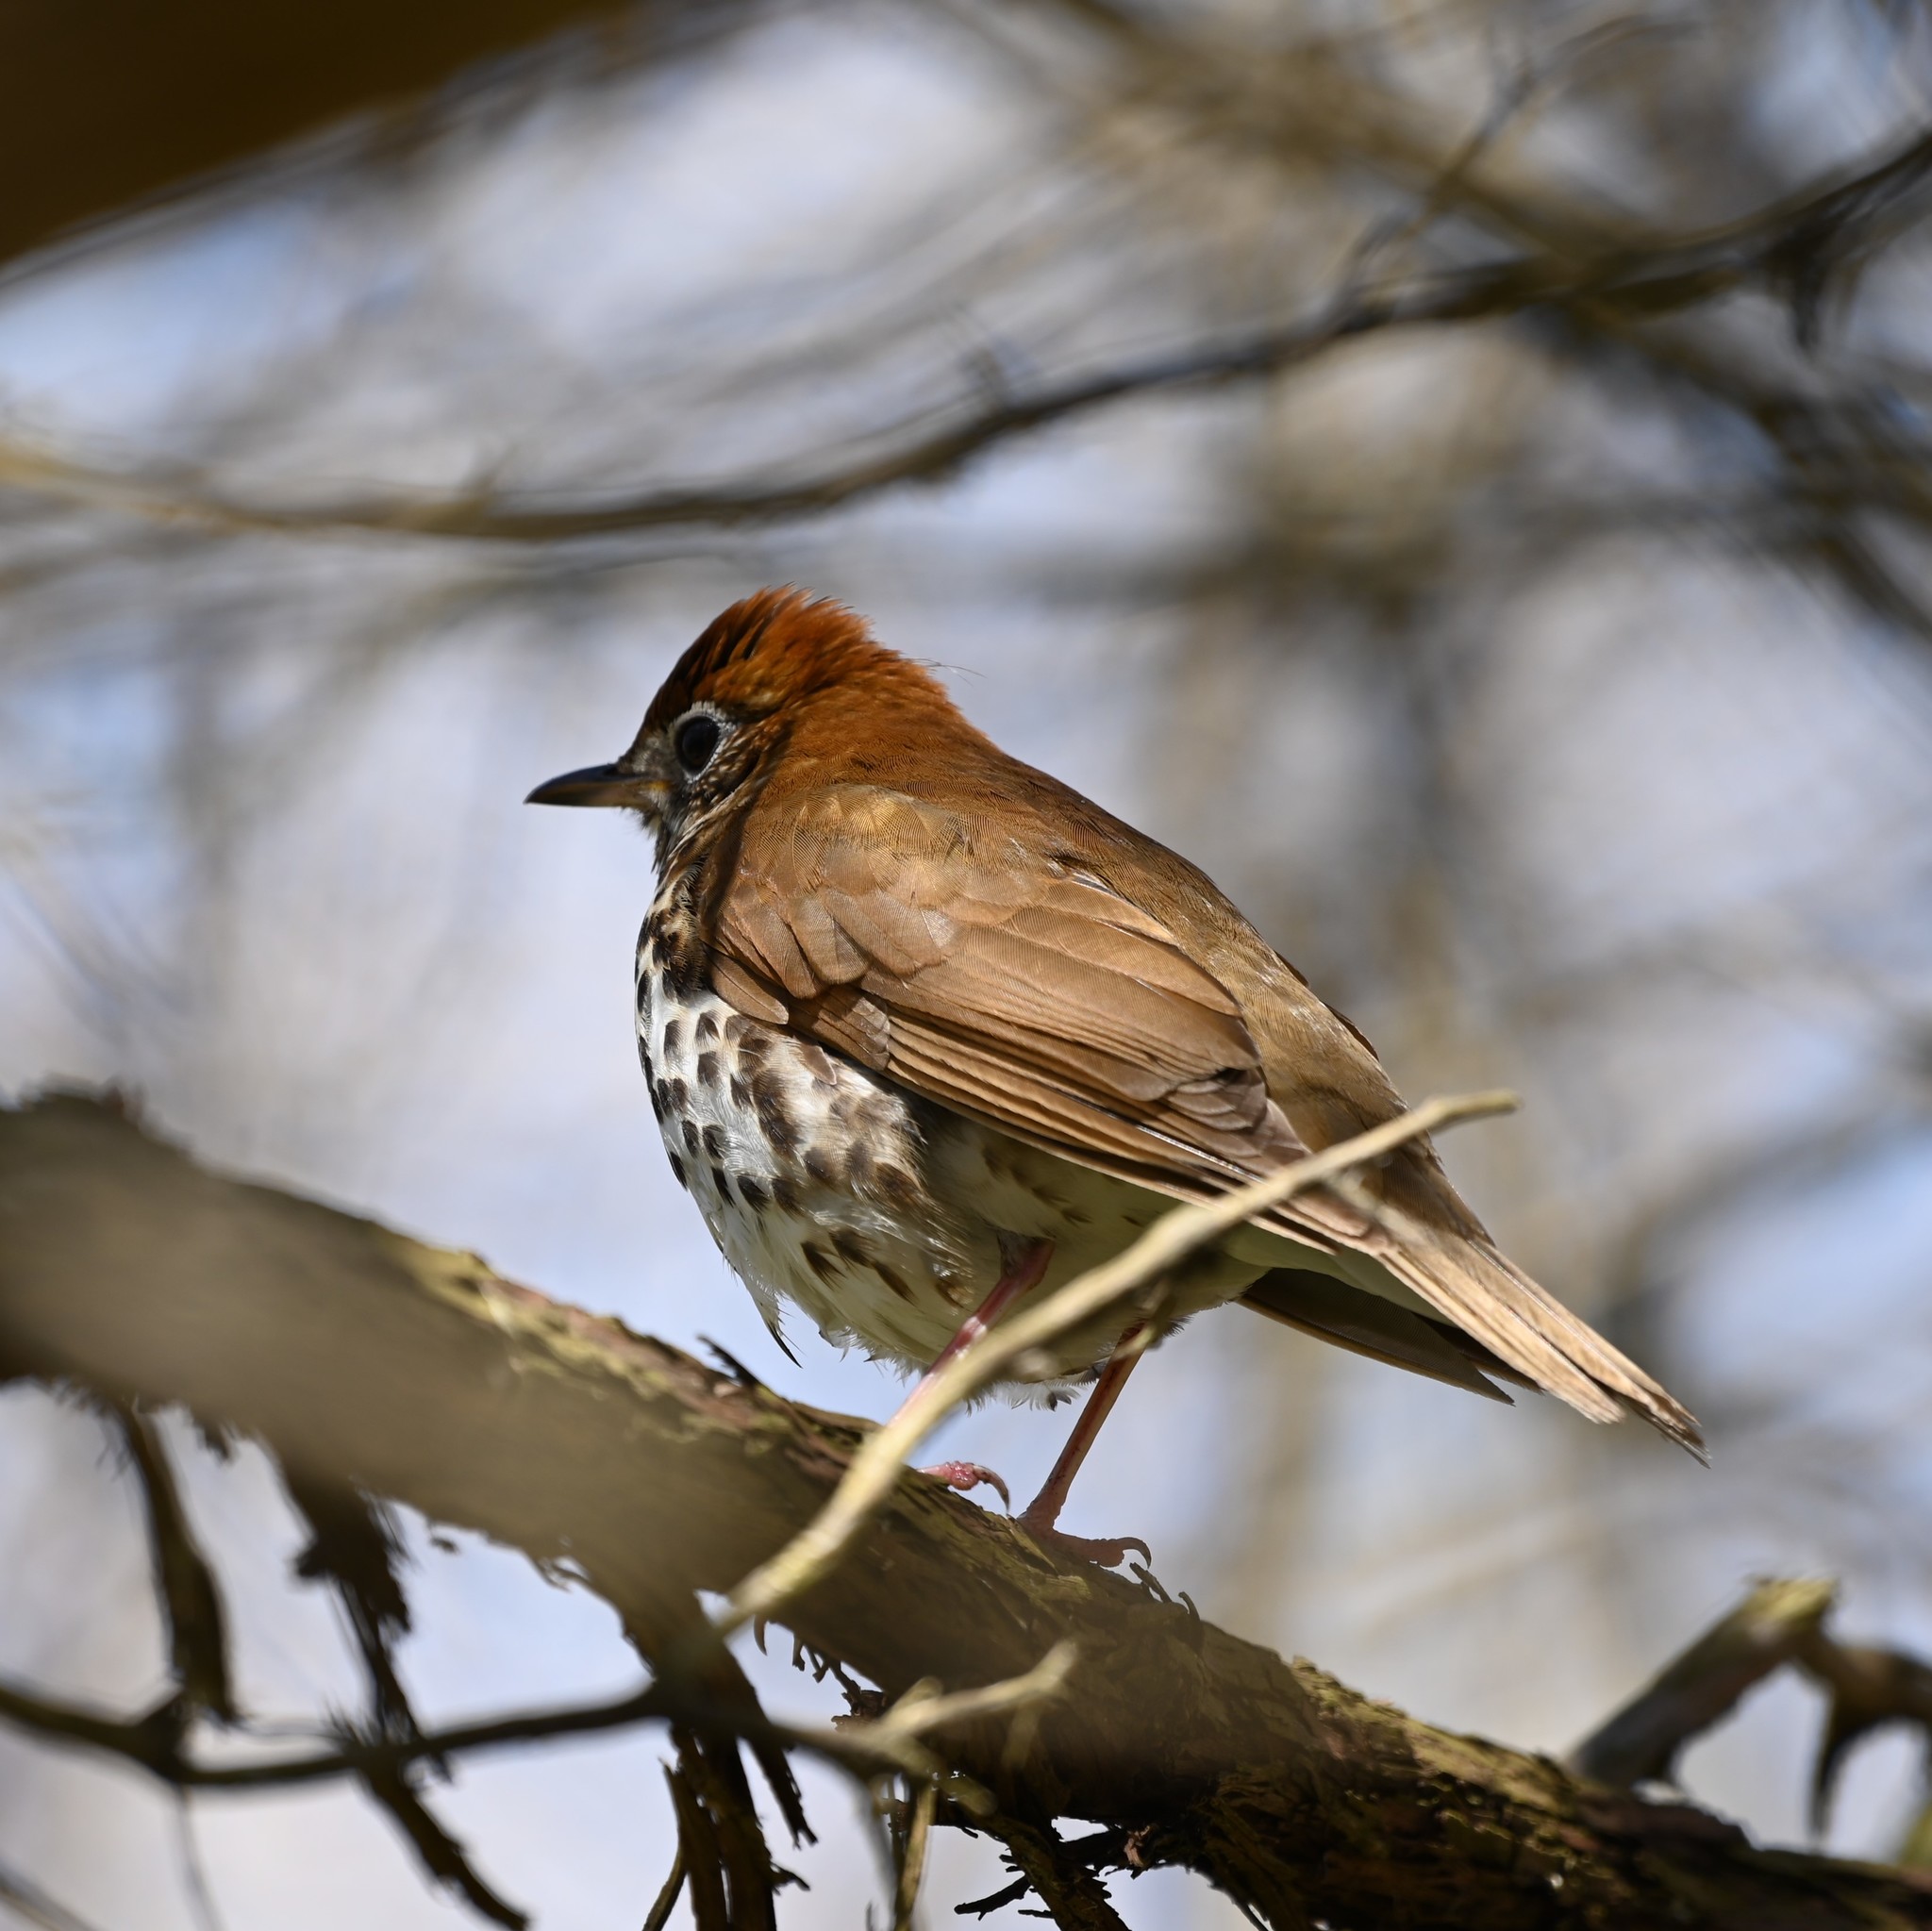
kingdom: Animalia
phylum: Chordata
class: Aves
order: Passeriformes
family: Turdidae
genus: Hylocichla
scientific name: Hylocichla mustelina
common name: Wood thrush
